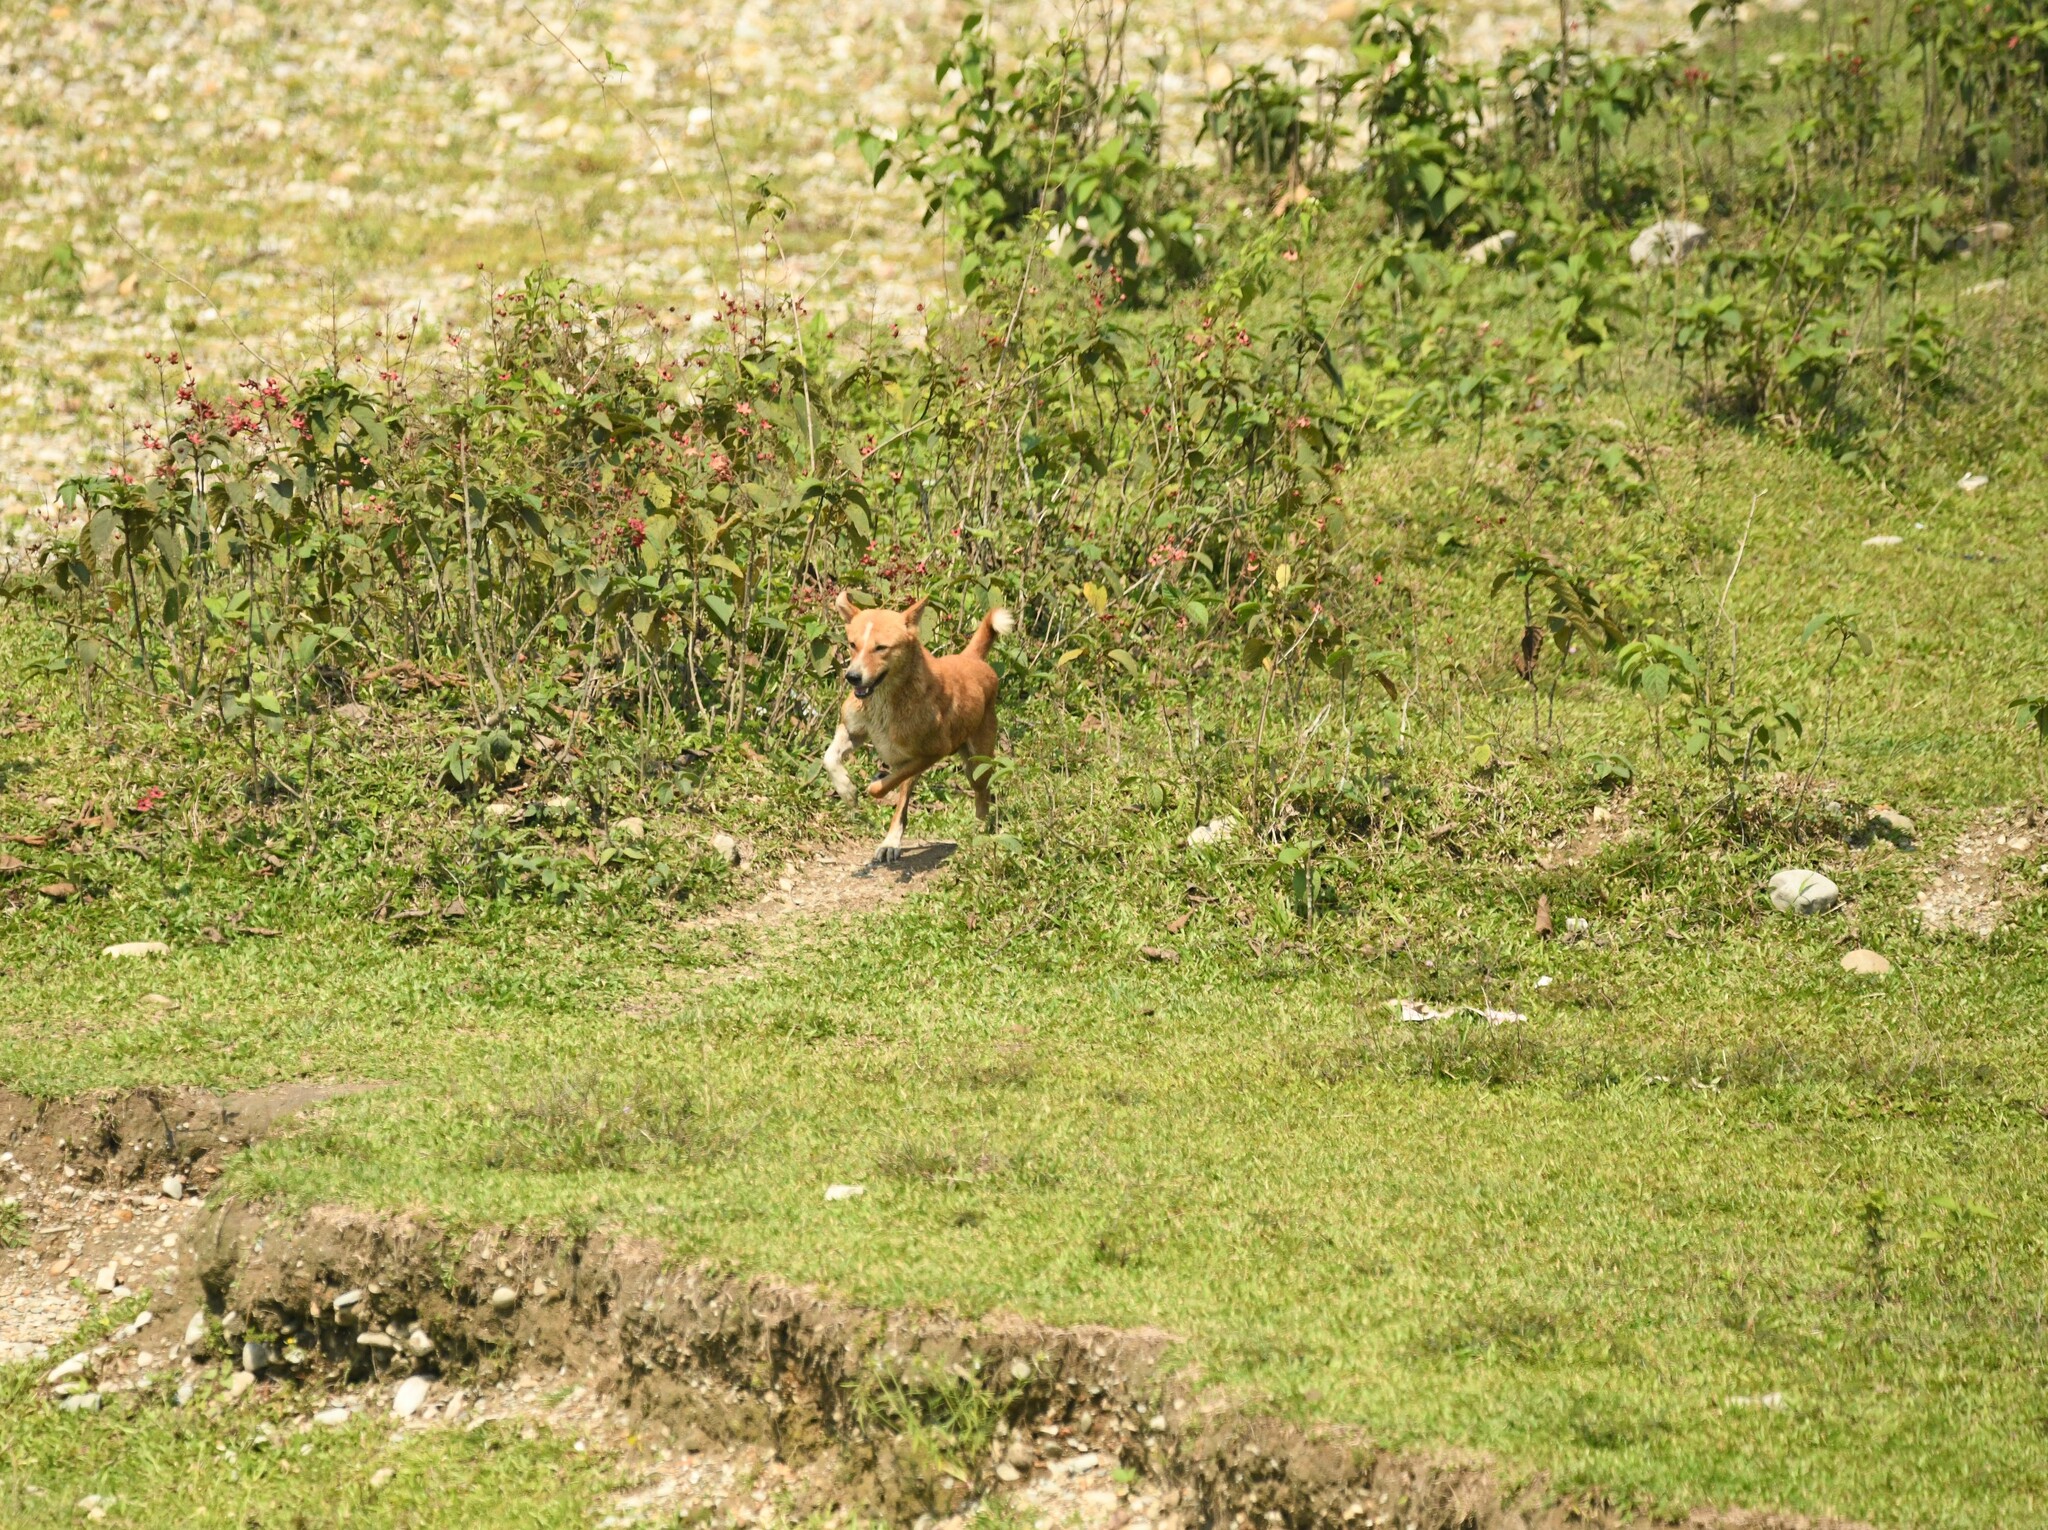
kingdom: Animalia
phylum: Chordata
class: Mammalia
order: Carnivora
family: Canidae
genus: Canis
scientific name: Canis lupus
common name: Gray wolf
